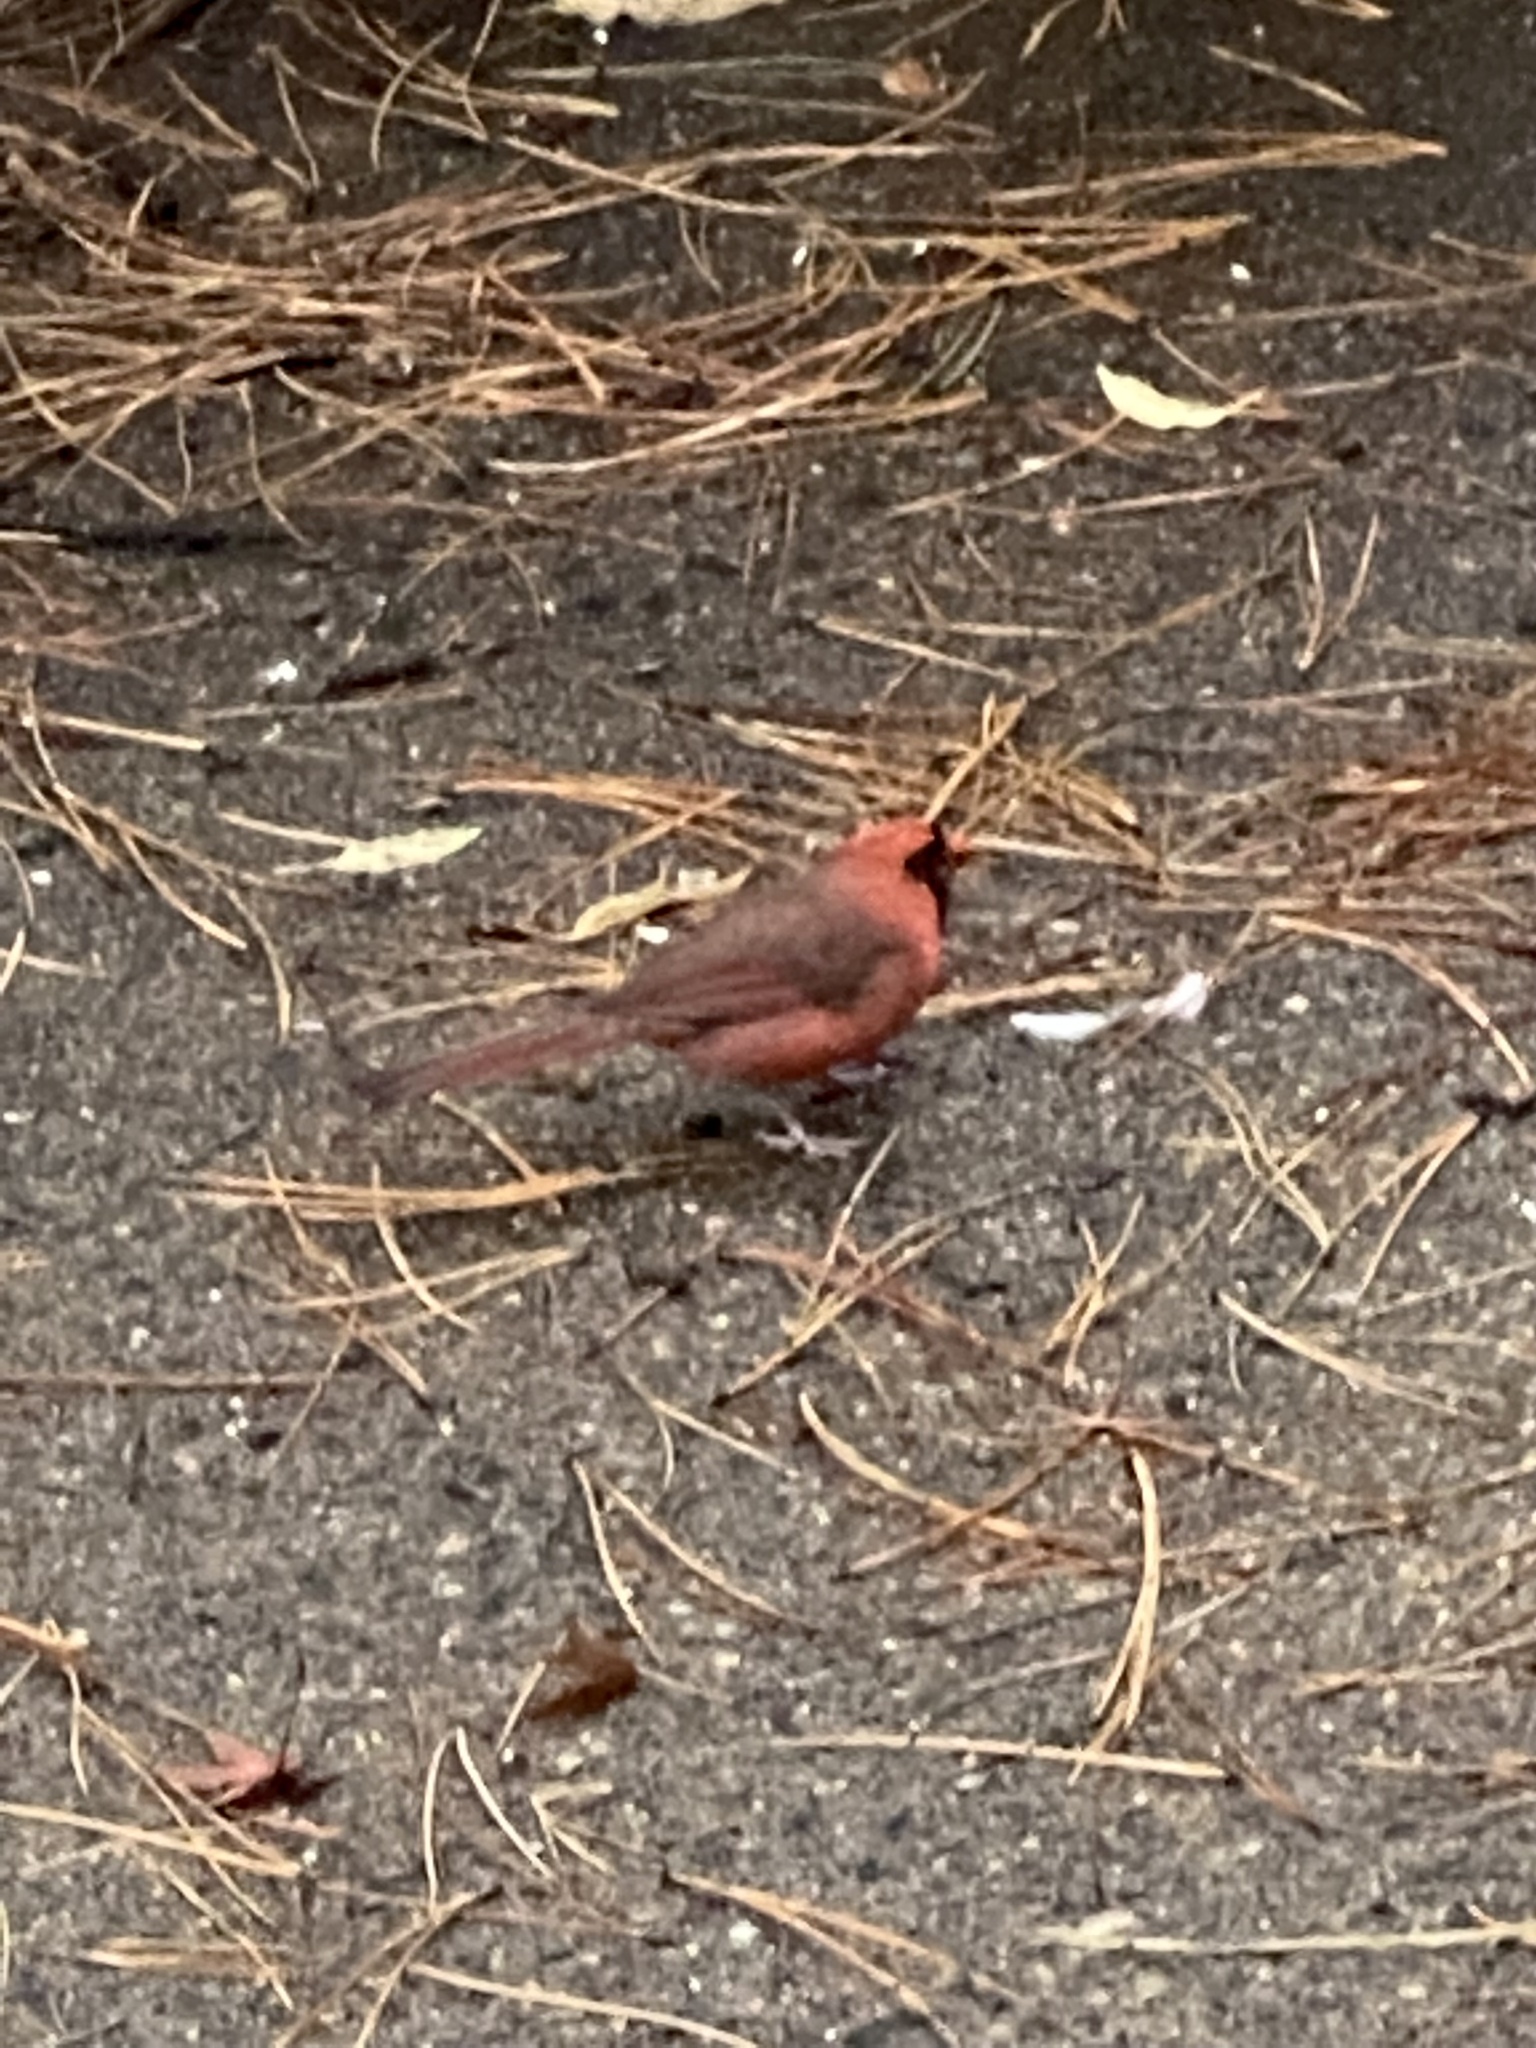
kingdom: Animalia
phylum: Chordata
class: Aves
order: Passeriformes
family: Cardinalidae
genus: Cardinalis
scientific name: Cardinalis cardinalis
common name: Northern cardinal
